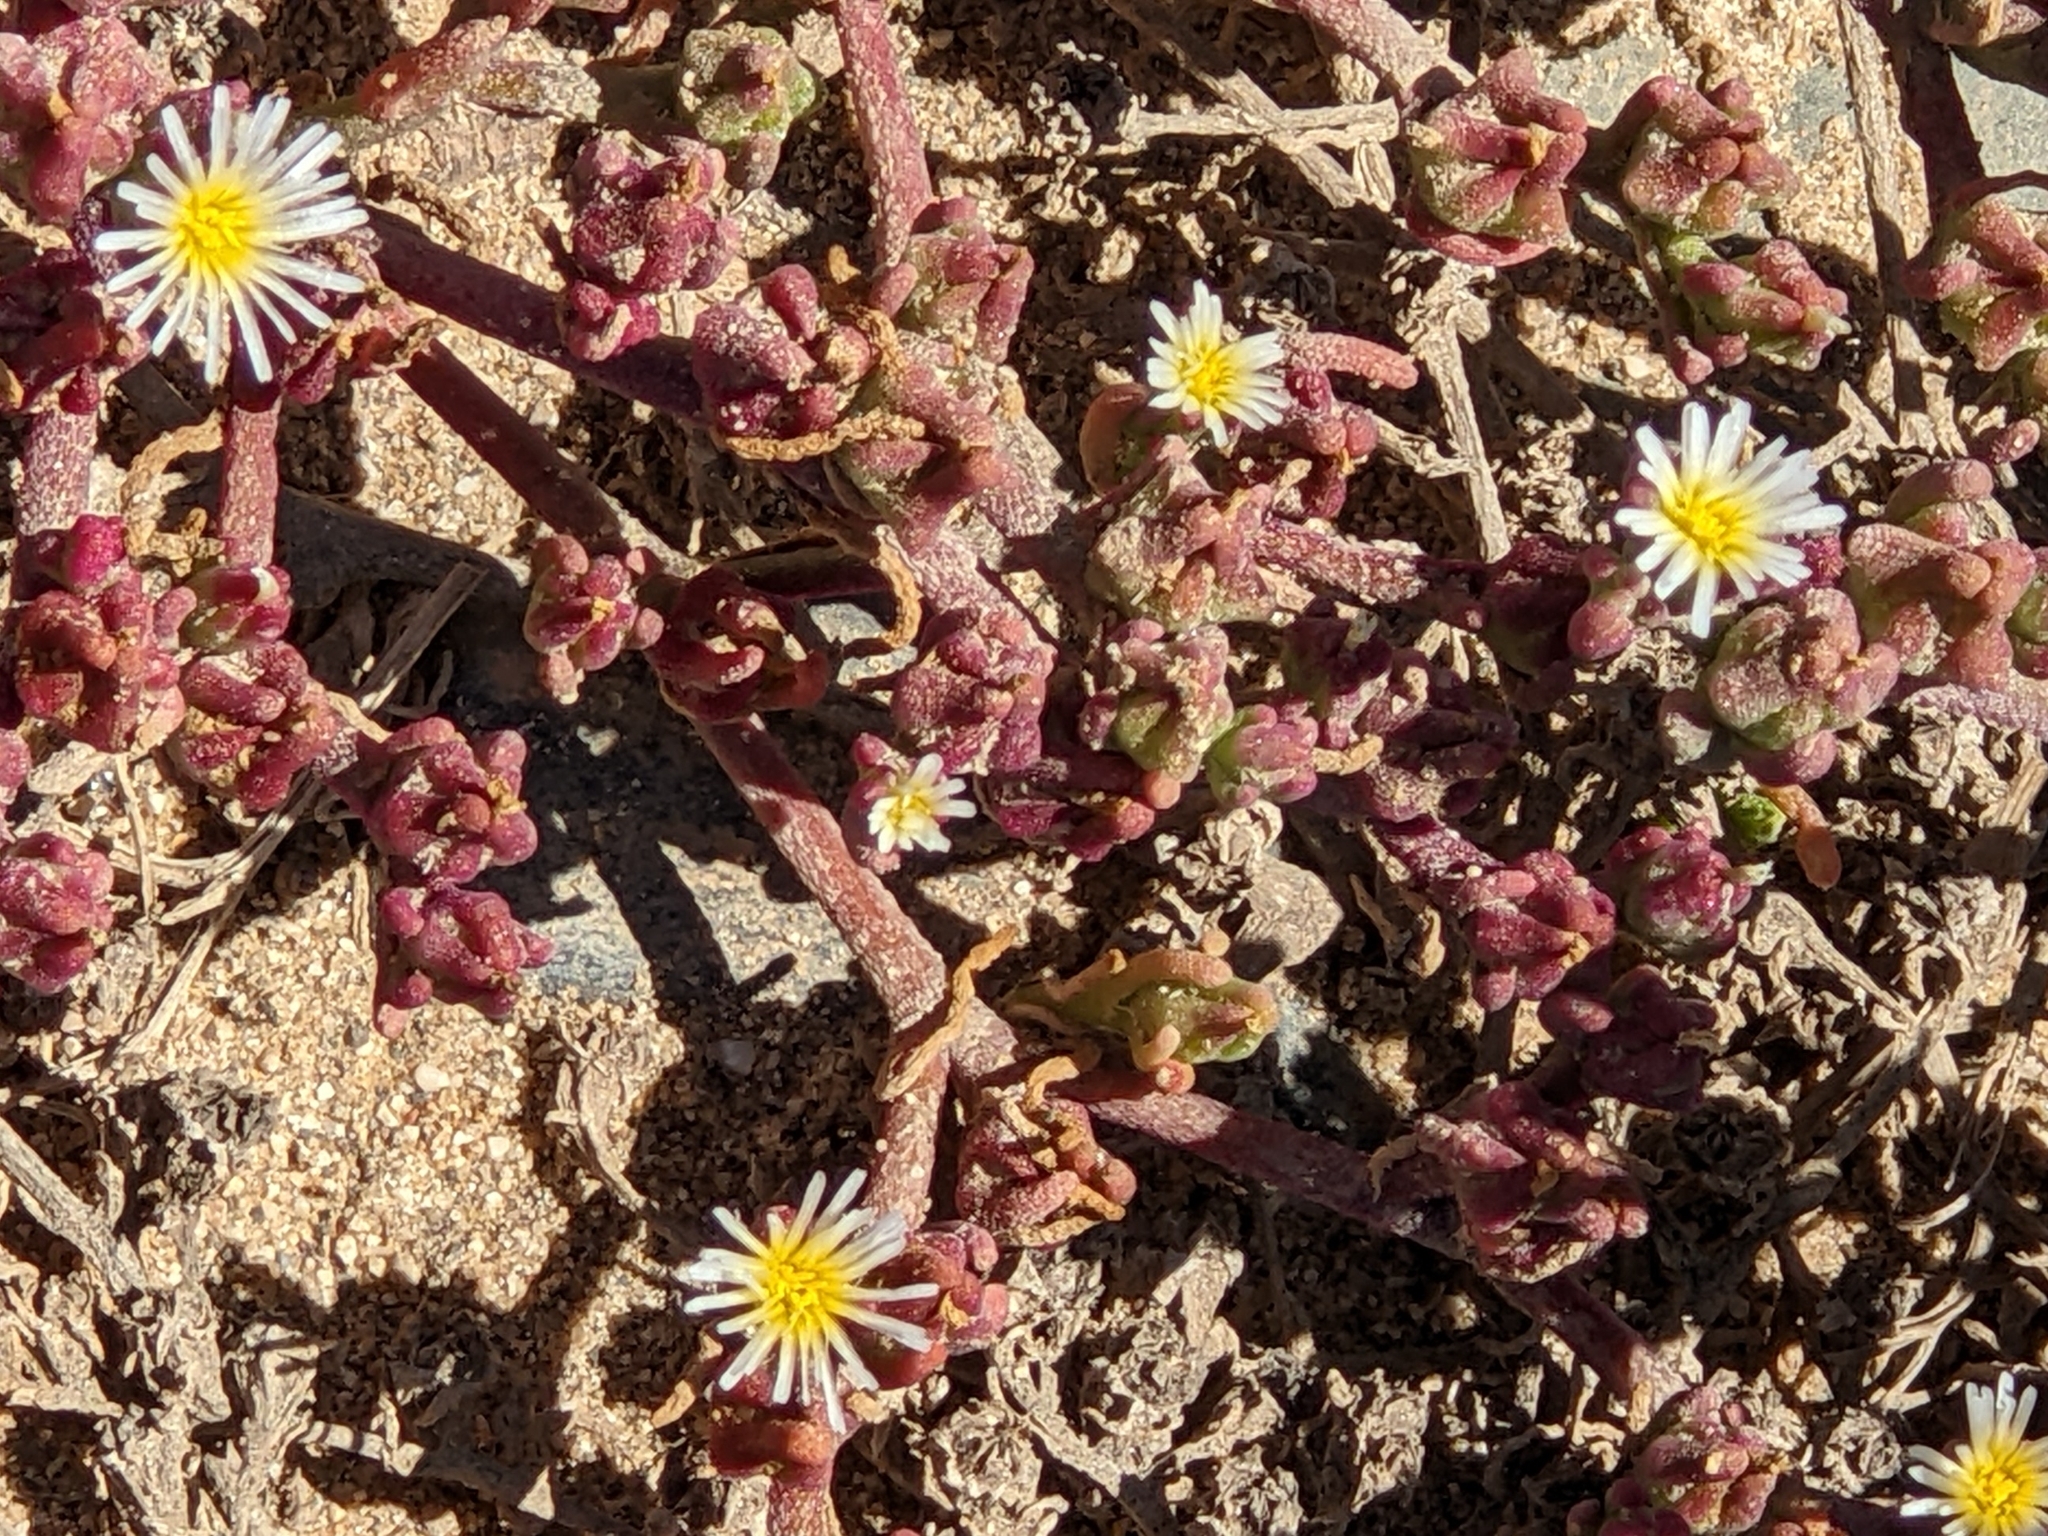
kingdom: Plantae
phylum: Tracheophyta
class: Magnoliopsida
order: Caryophyllales
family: Aizoaceae
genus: Mesembryanthemum
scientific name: Mesembryanthemum nodiflorum
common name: Slenderleaf iceplant
